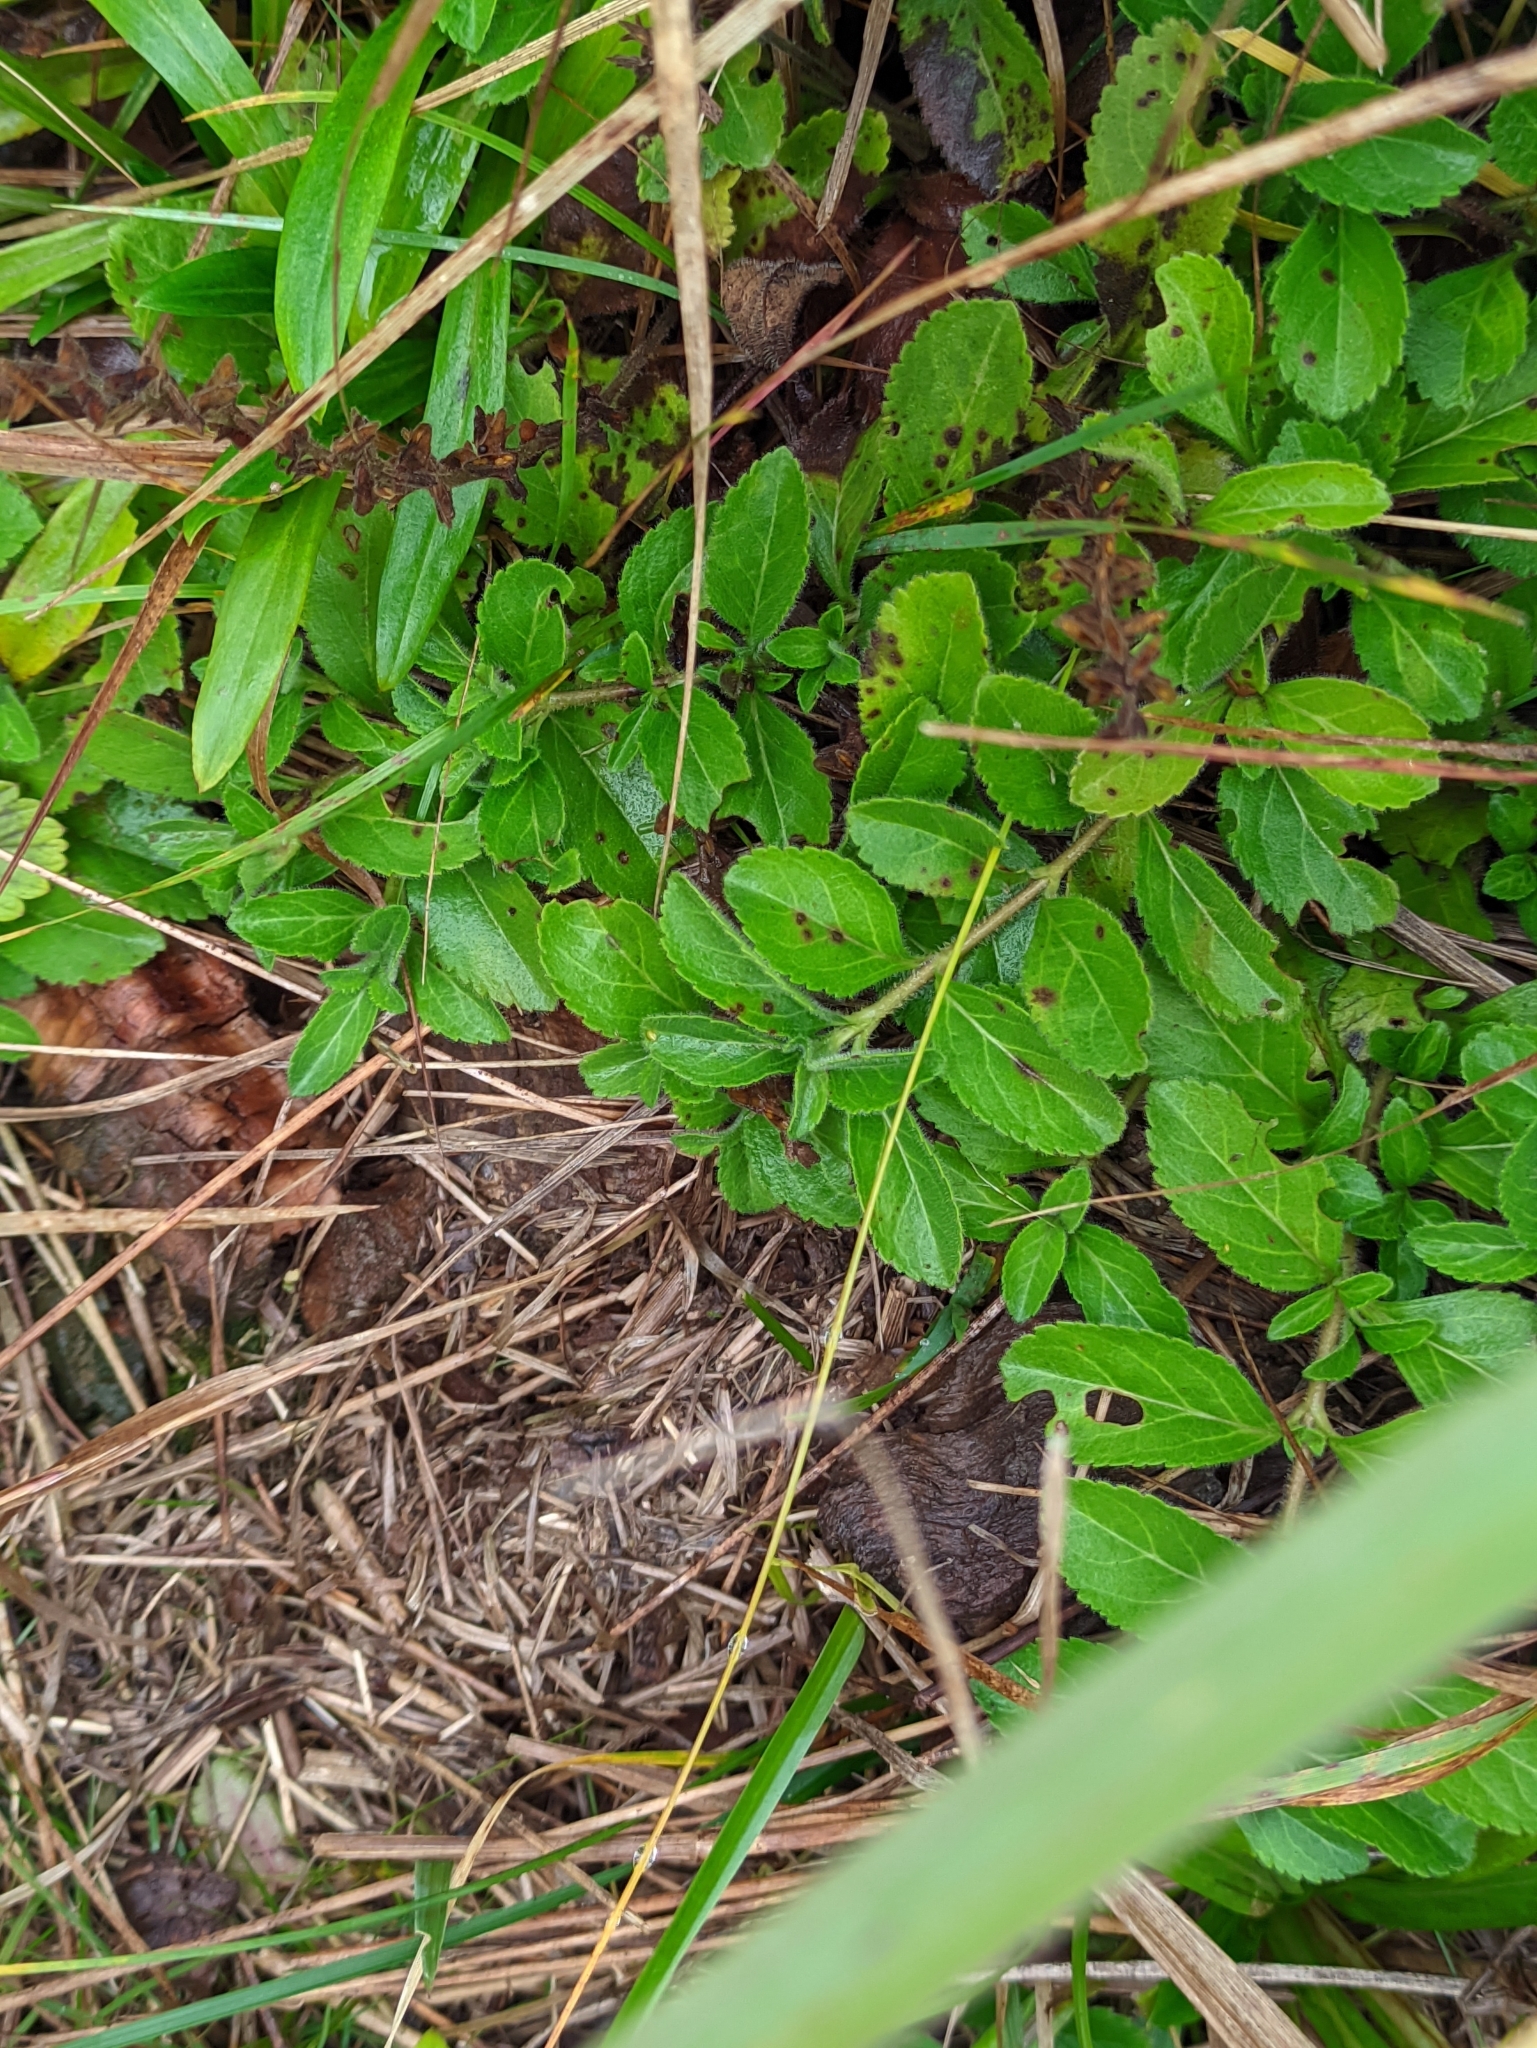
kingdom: Plantae
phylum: Tracheophyta
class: Magnoliopsida
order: Lamiales
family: Plantaginaceae
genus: Veronica
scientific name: Veronica officinalis
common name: Common speedwell
